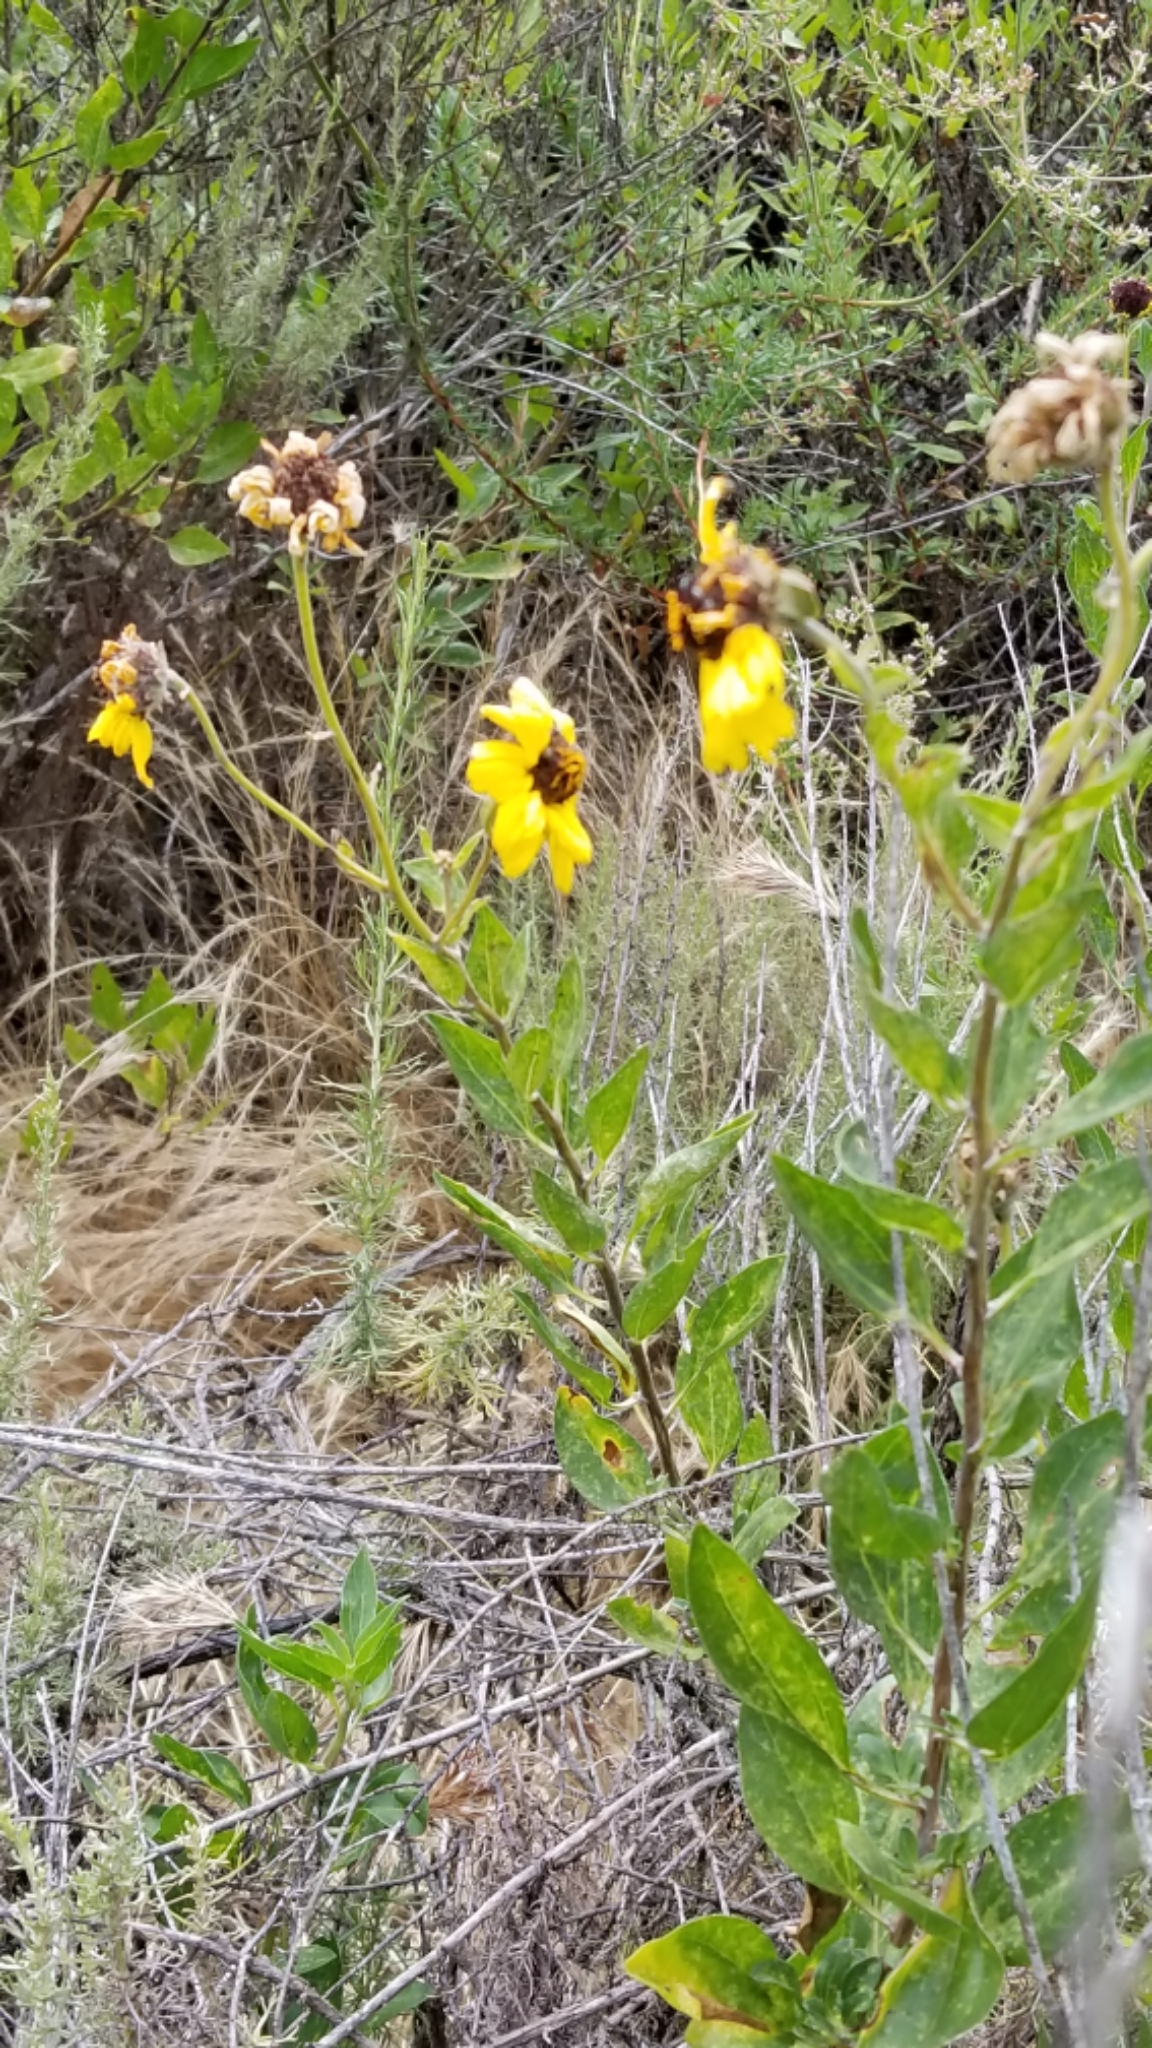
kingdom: Plantae
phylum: Tracheophyta
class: Magnoliopsida
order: Asterales
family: Asteraceae
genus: Encelia
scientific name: Encelia californica
